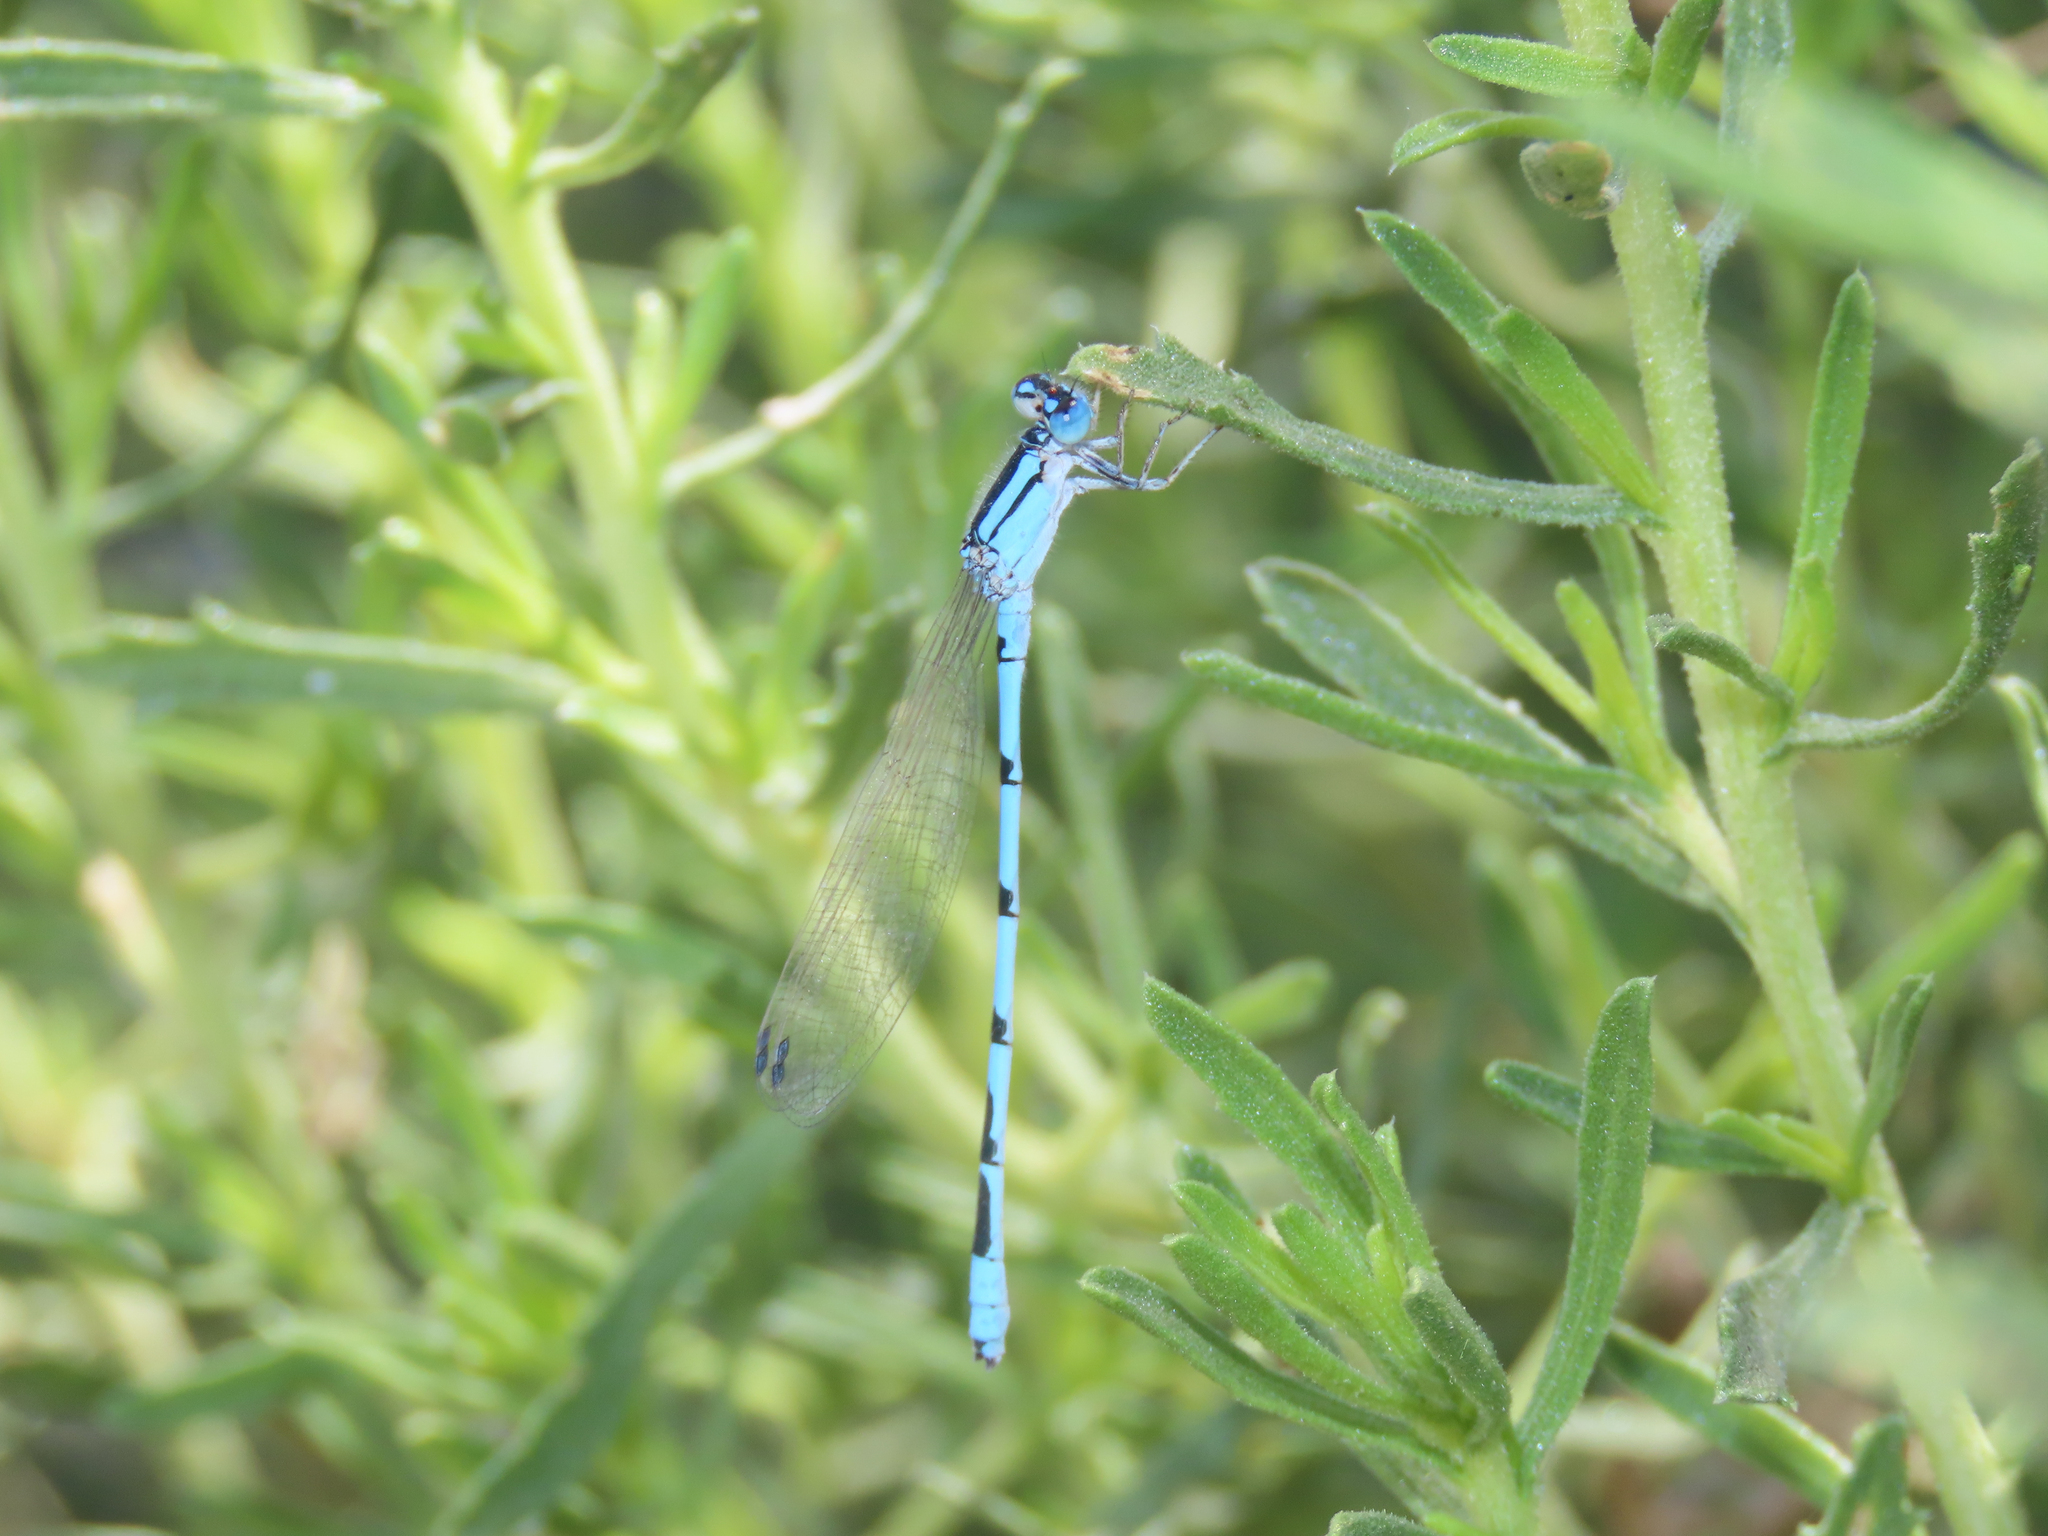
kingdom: Animalia
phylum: Arthropoda
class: Insecta
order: Odonata
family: Coenagrionidae
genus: Enallagma
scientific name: Enallagma civile
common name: Damselfly
